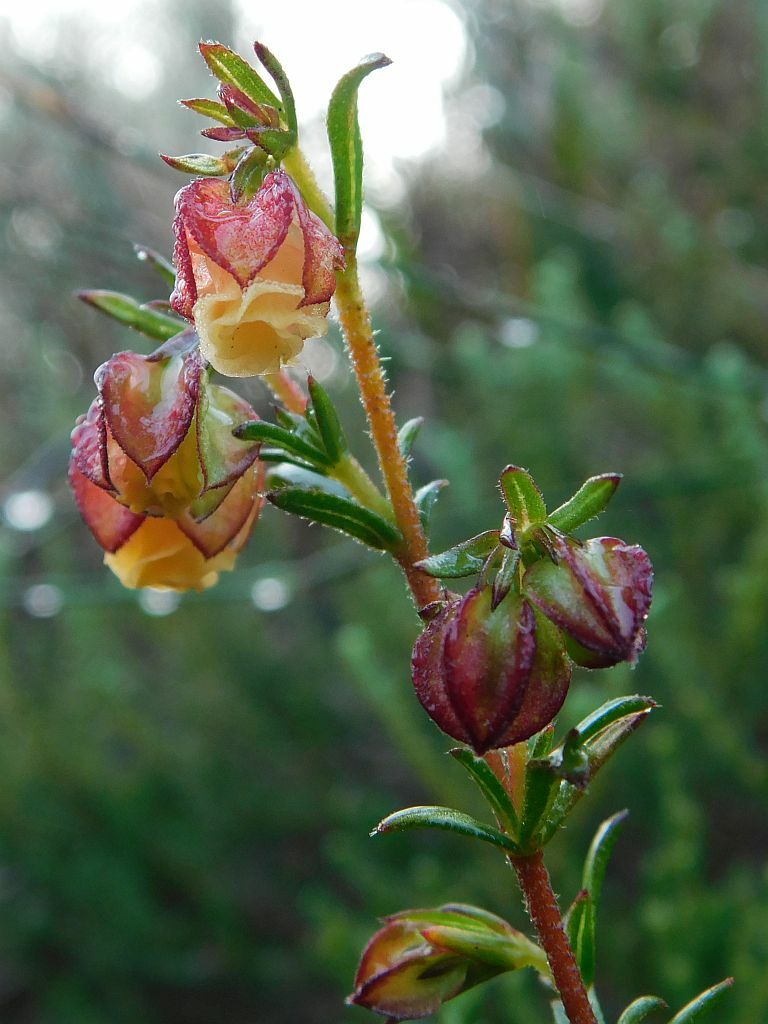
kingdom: Plantae
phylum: Tracheophyta
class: Magnoliopsida
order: Malvales
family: Malvaceae
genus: Hermannia
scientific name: Hermannia angularis
